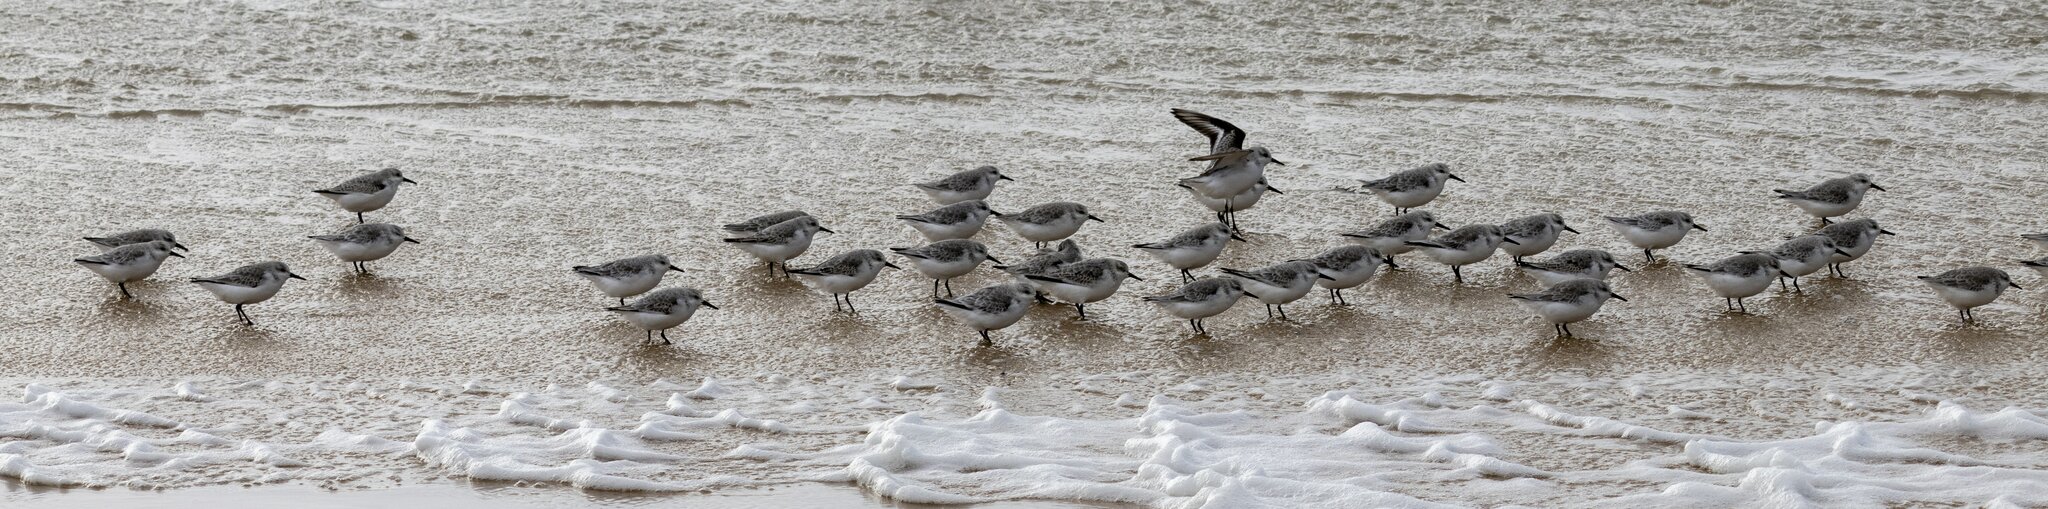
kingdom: Animalia
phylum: Chordata
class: Aves
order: Charadriiformes
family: Scolopacidae
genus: Calidris
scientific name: Calidris alba
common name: Sanderling
